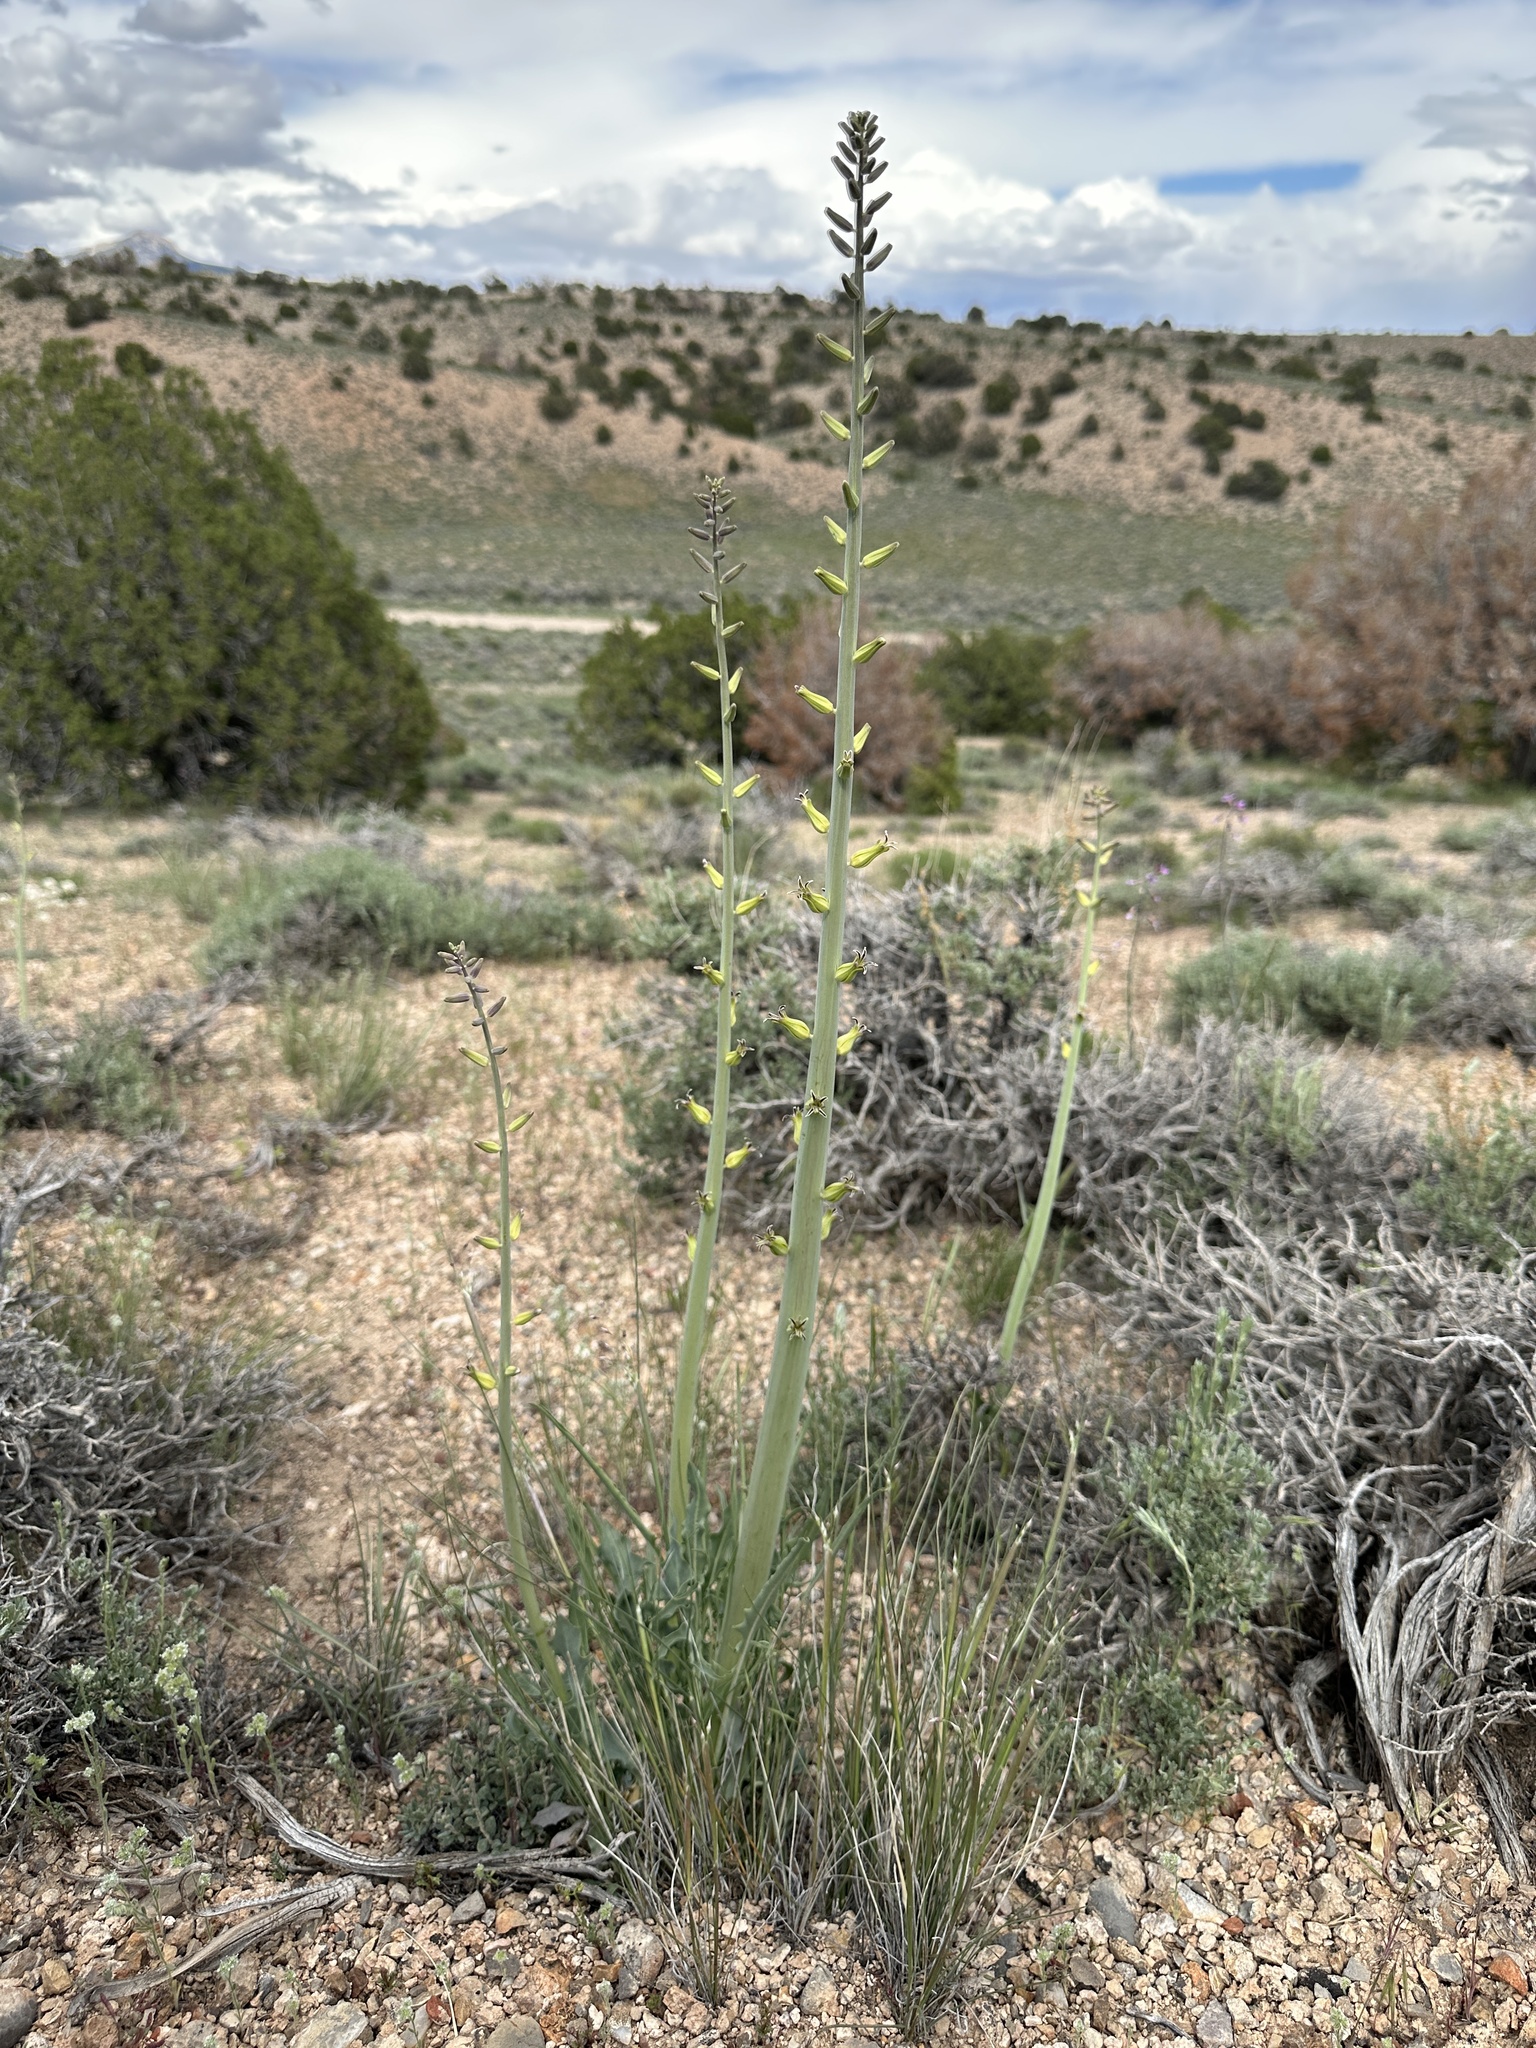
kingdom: Plantae
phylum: Tracheophyta
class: Magnoliopsida
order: Brassicales
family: Brassicaceae
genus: Streptanthus
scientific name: Streptanthus crassicaulis
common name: Thick-stem wild cabbage
